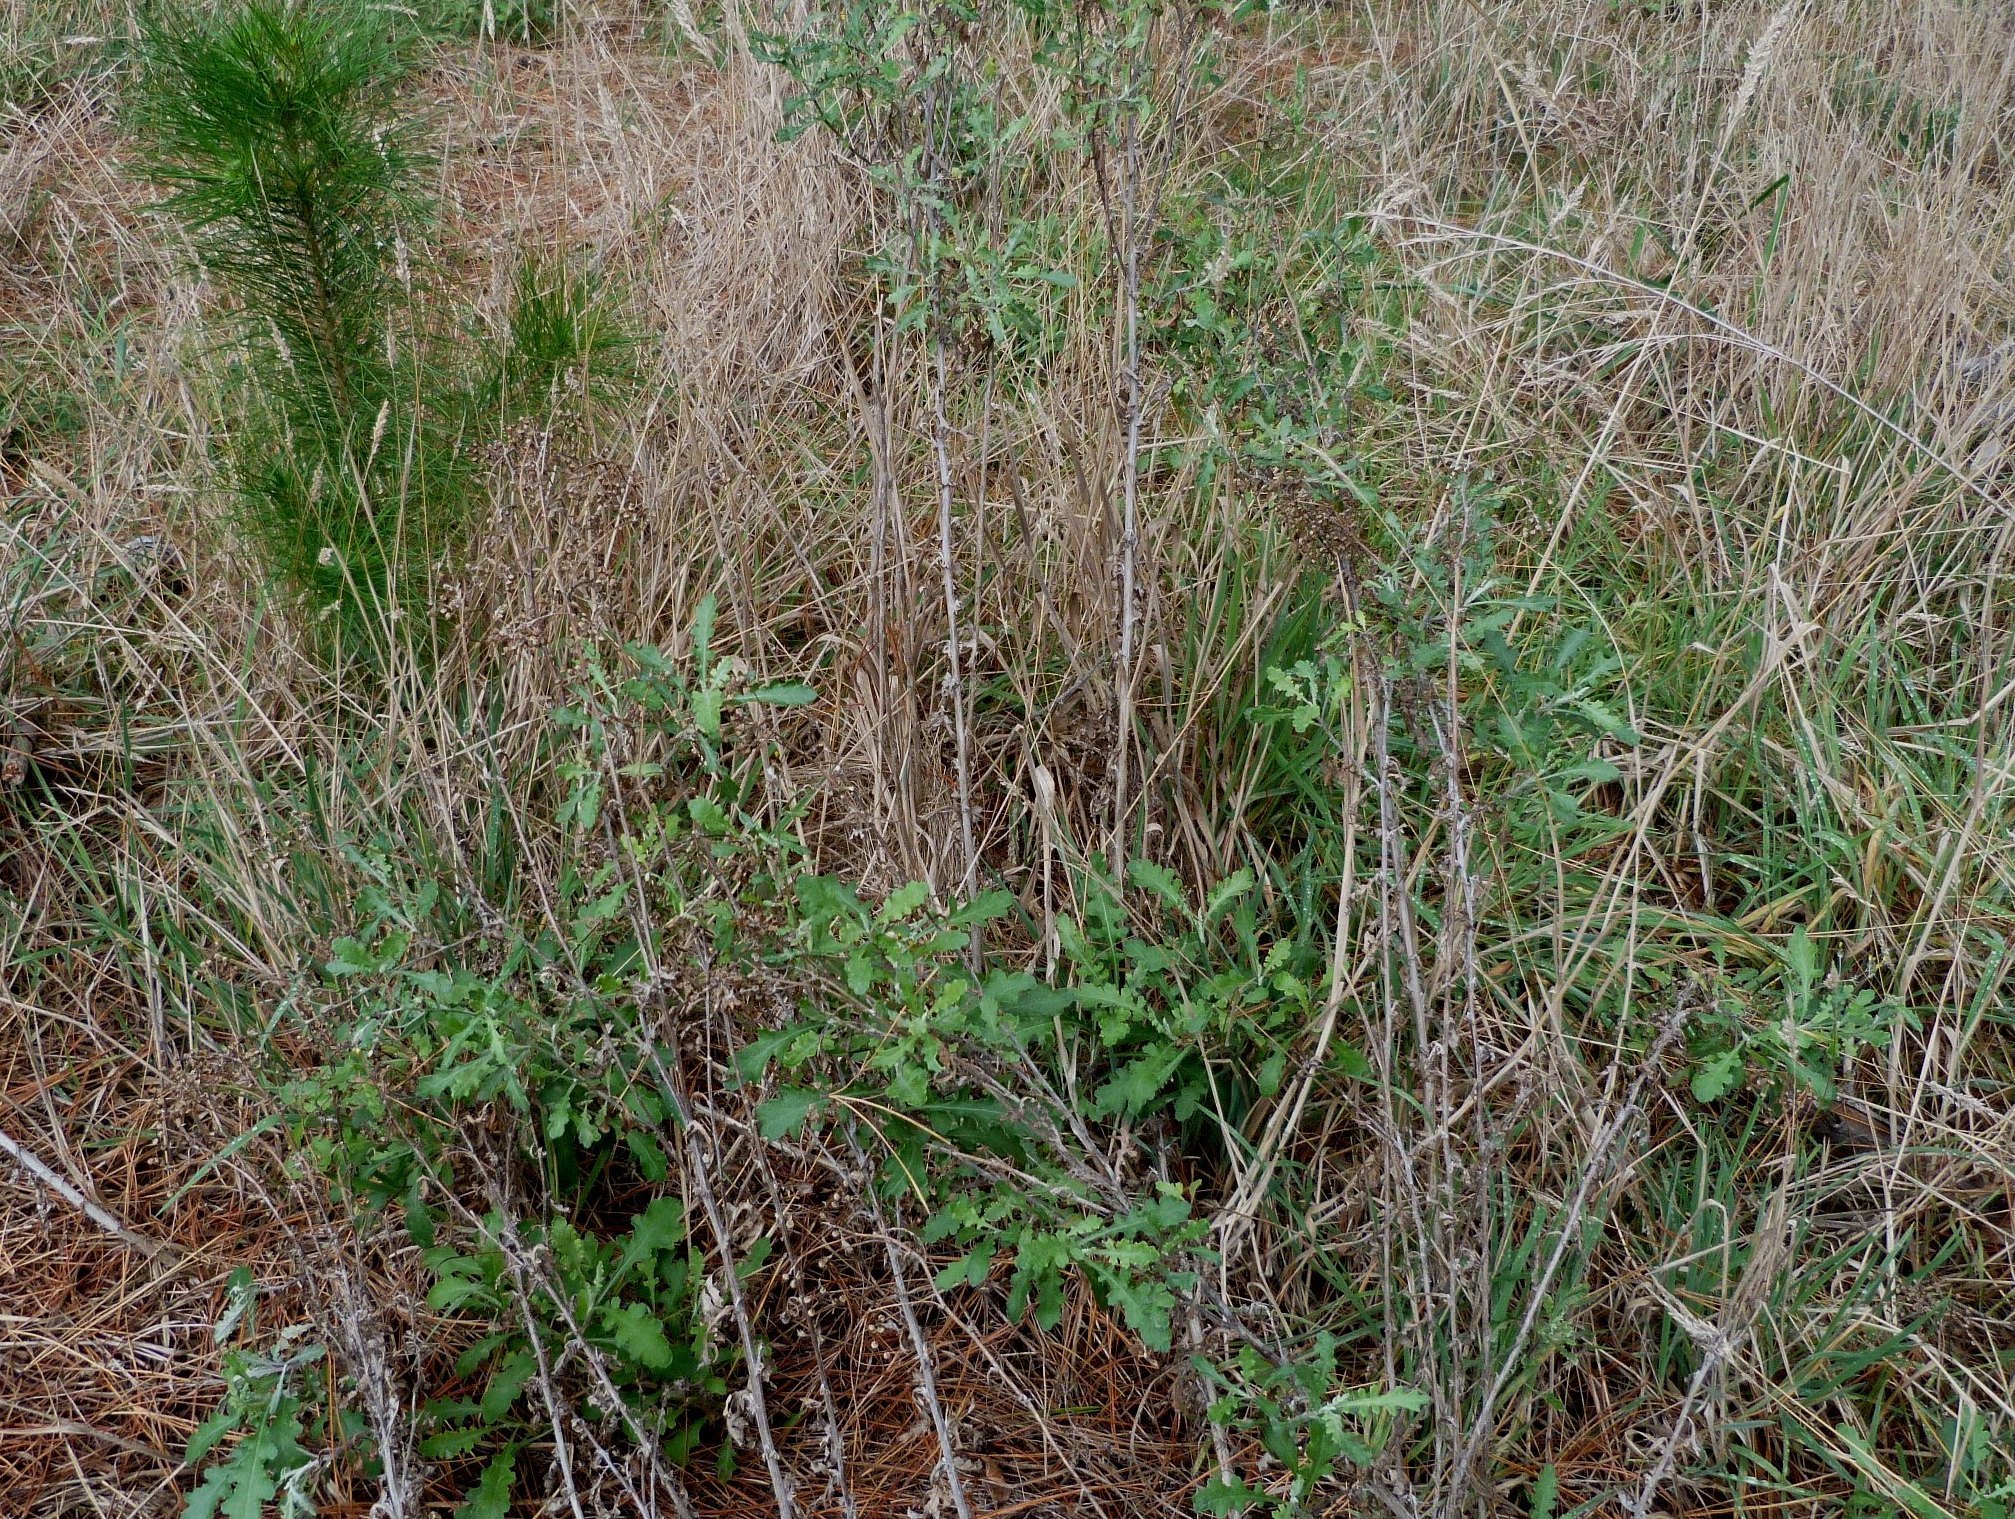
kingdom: Plantae
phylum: Tracheophyta
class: Magnoliopsida
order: Asterales
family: Asteraceae
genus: Senecio
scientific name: Senecio glomeratus
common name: Cutleaf burnweed
